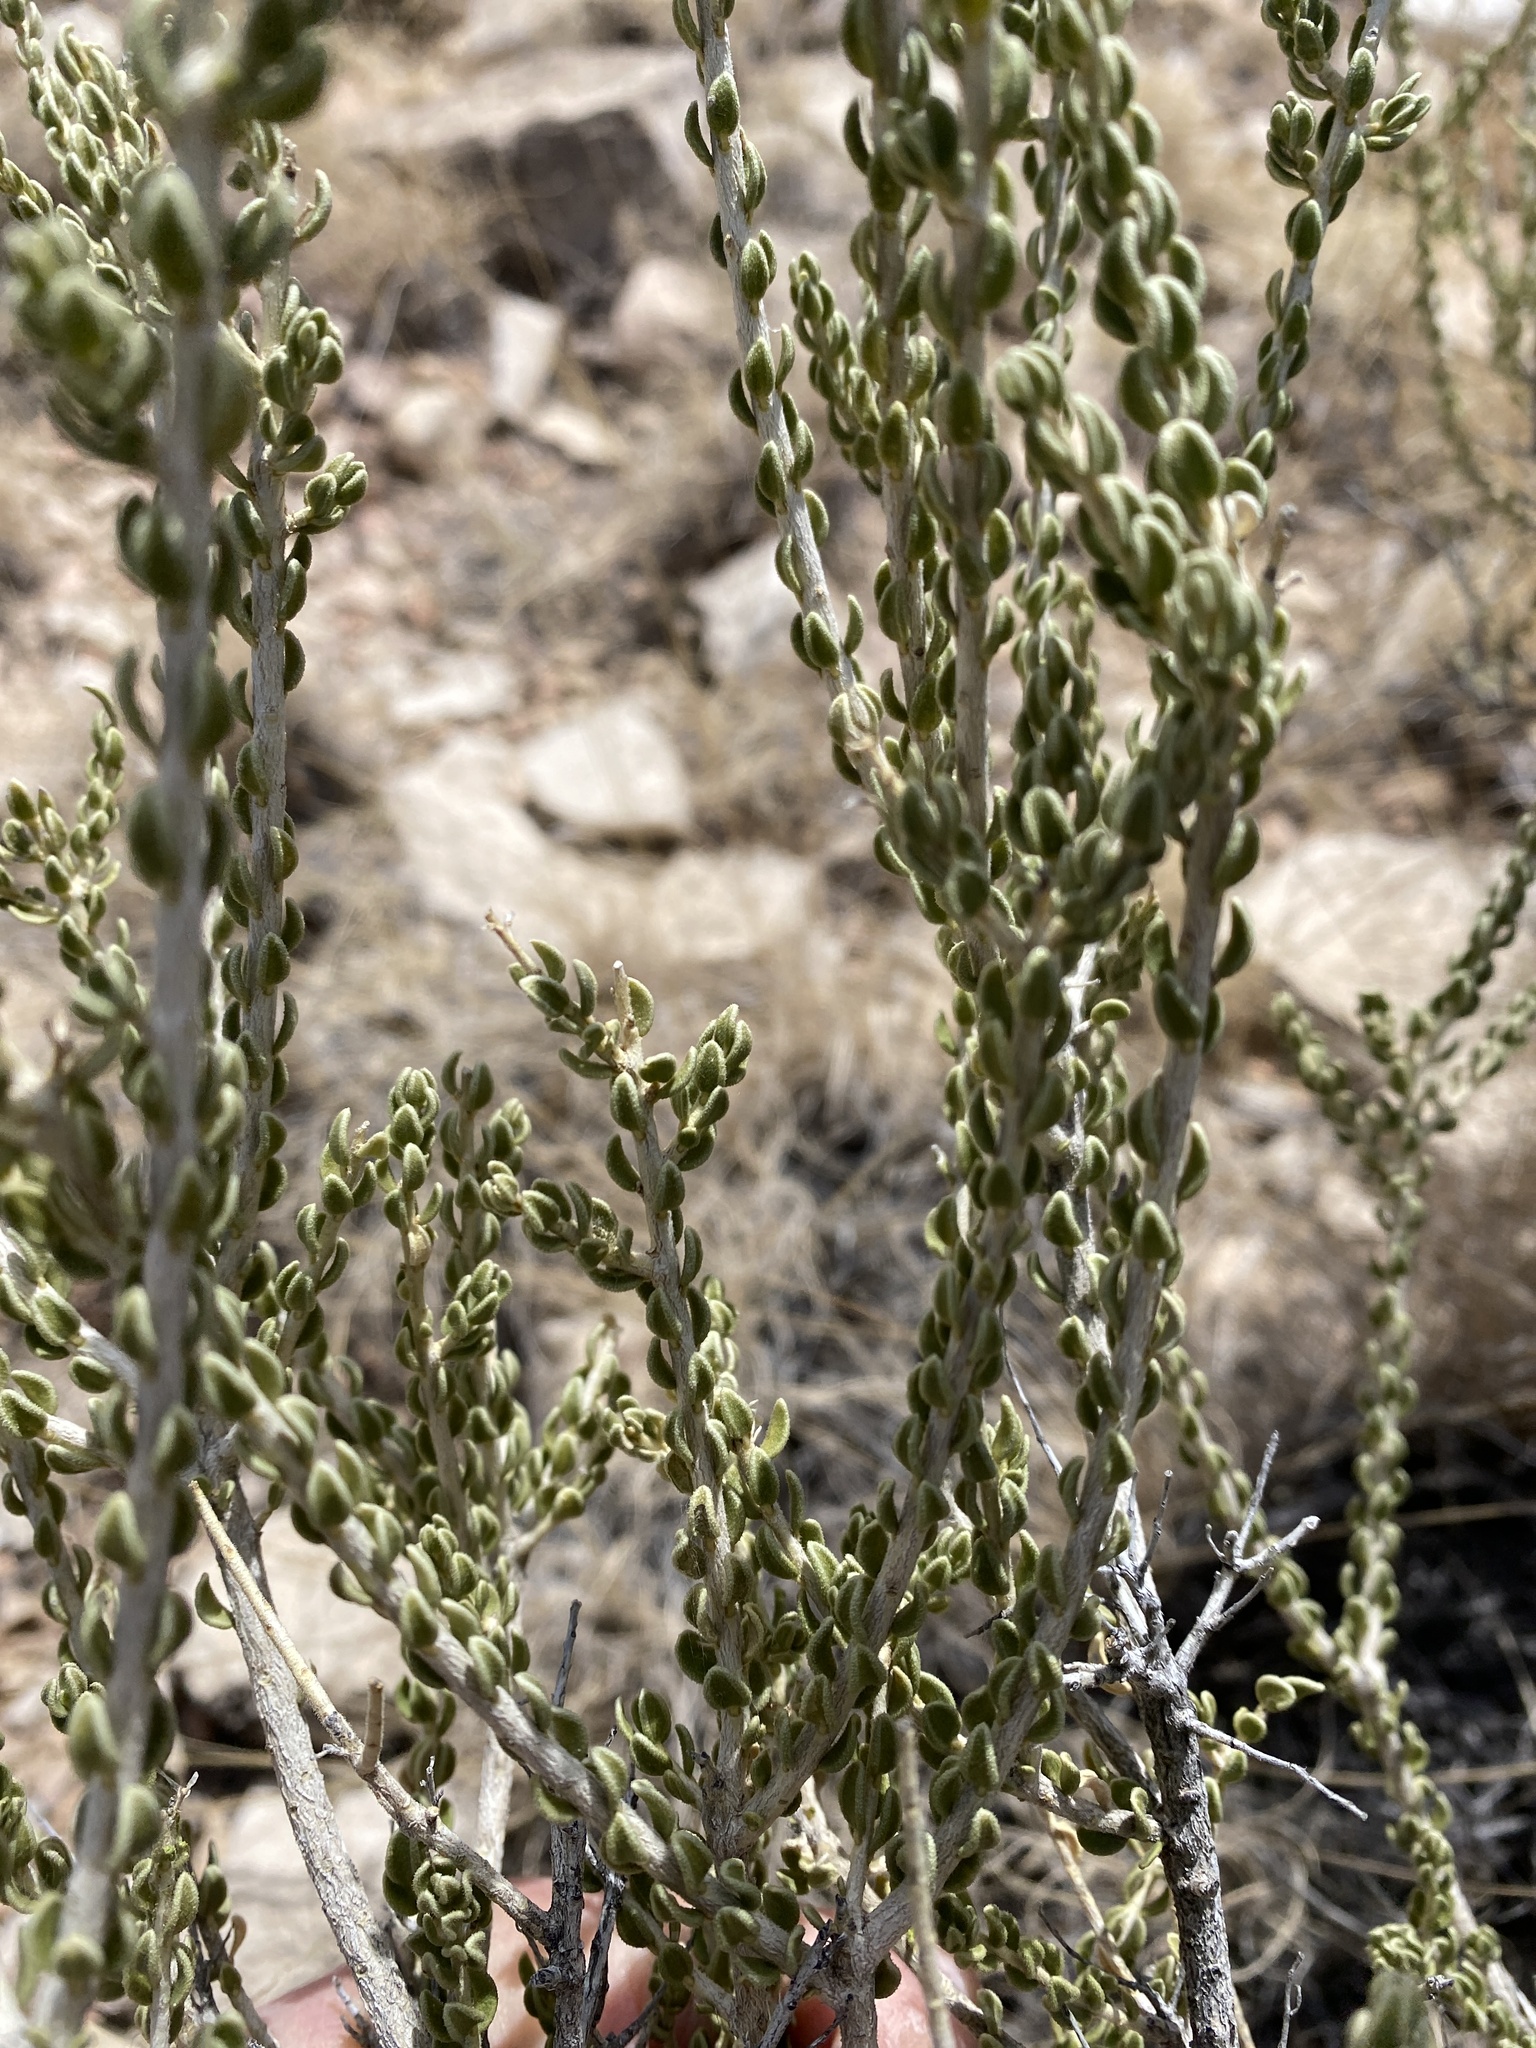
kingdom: Plantae
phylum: Tracheophyta
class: Magnoliopsida
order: Celastrales
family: Celastraceae
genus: Mortonia
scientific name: Mortonia scabrella
